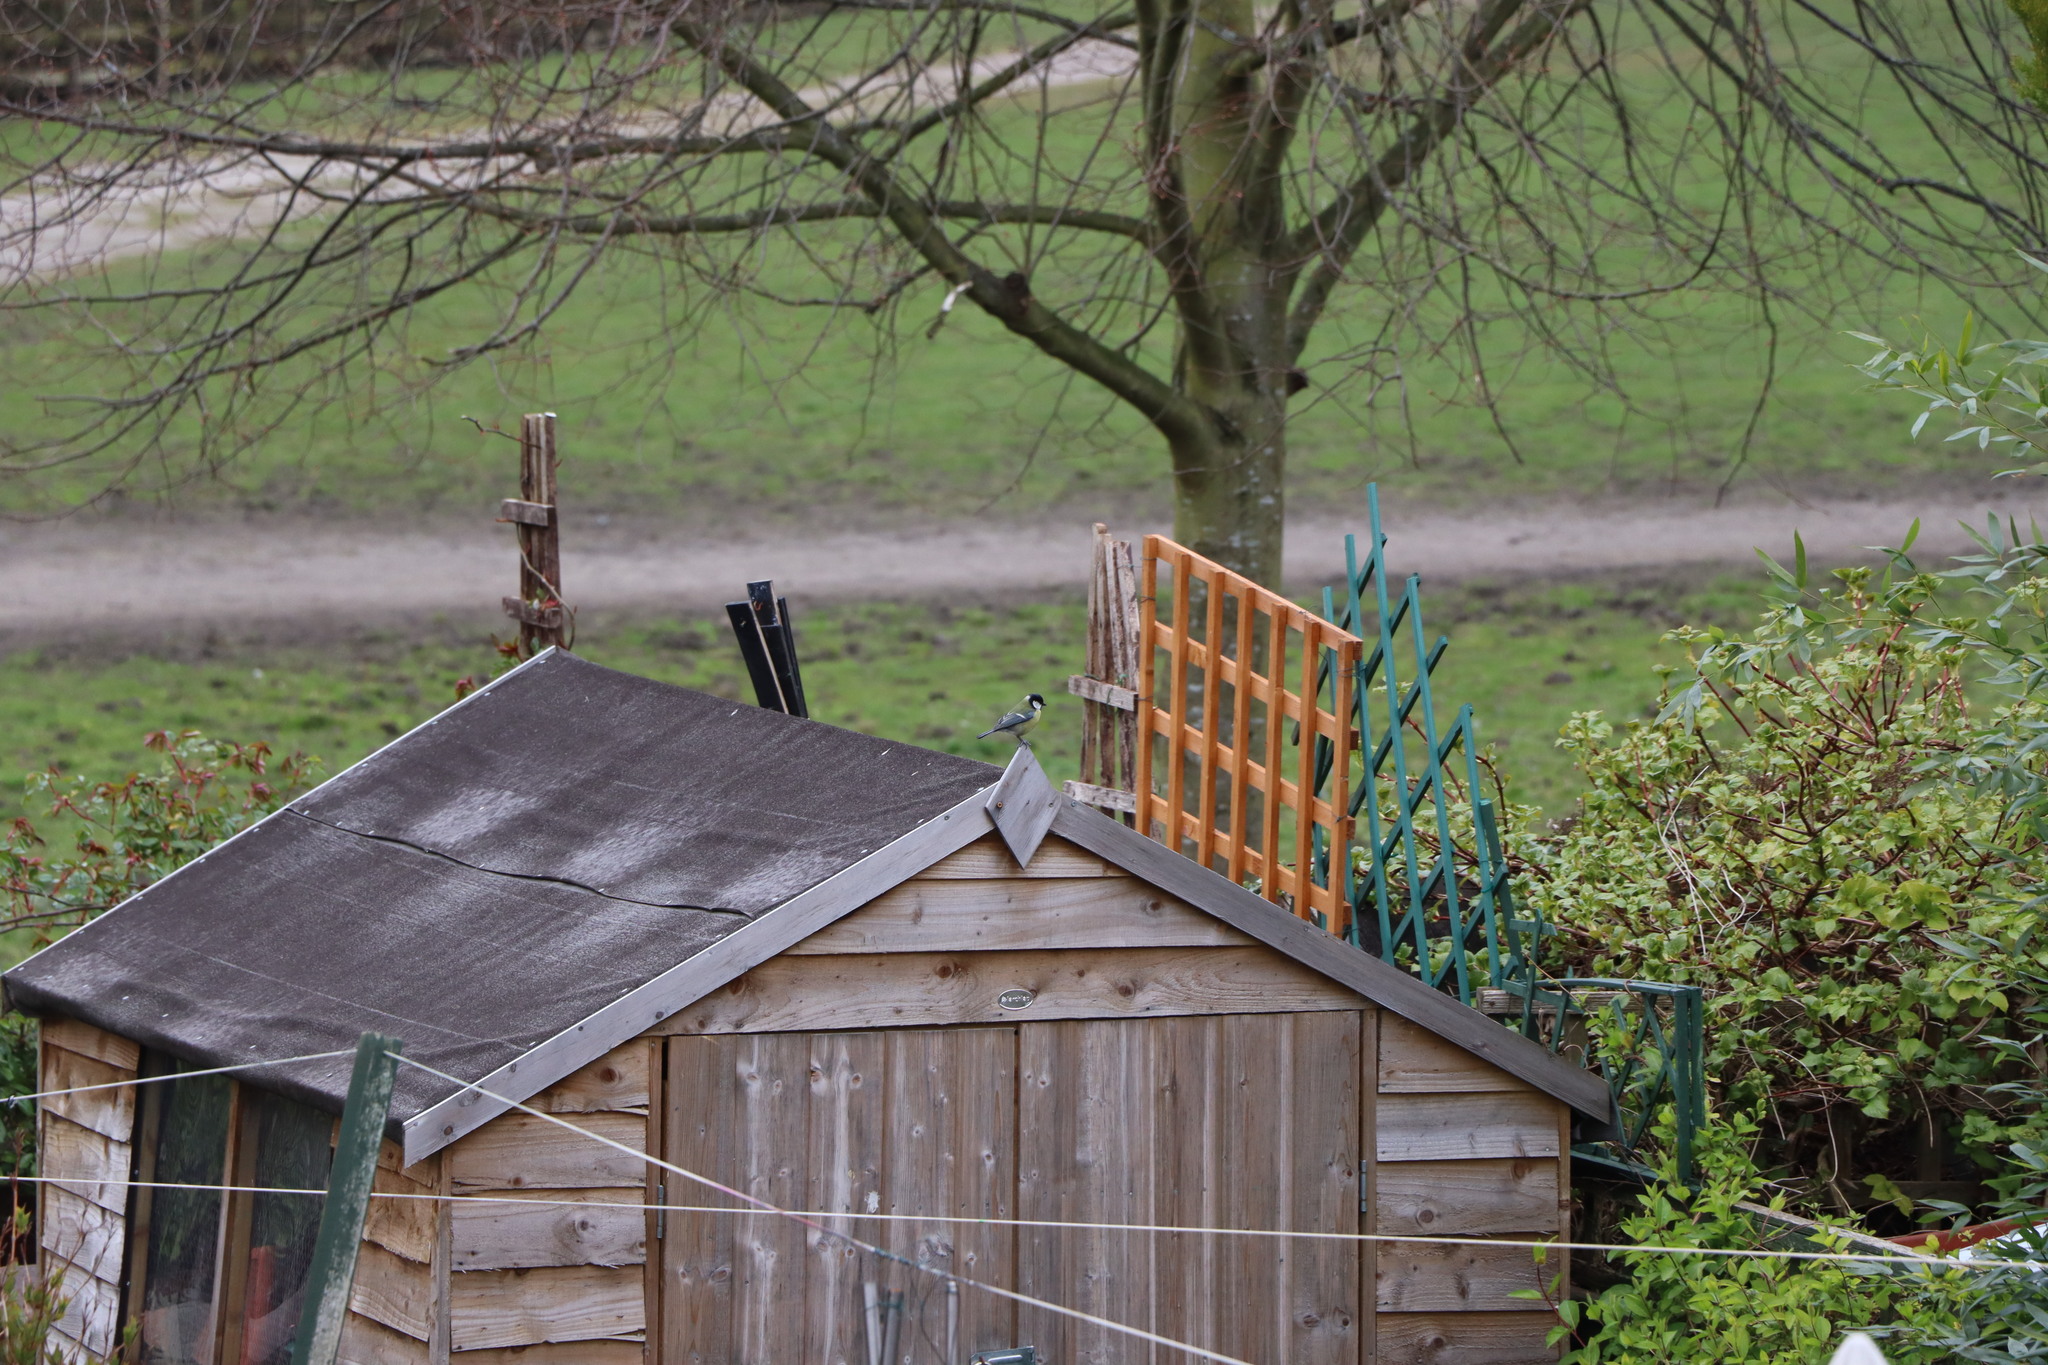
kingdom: Animalia
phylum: Chordata
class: Aves
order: Passeriformes
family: Paridae
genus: Parus
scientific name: Parus major
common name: Great tit
